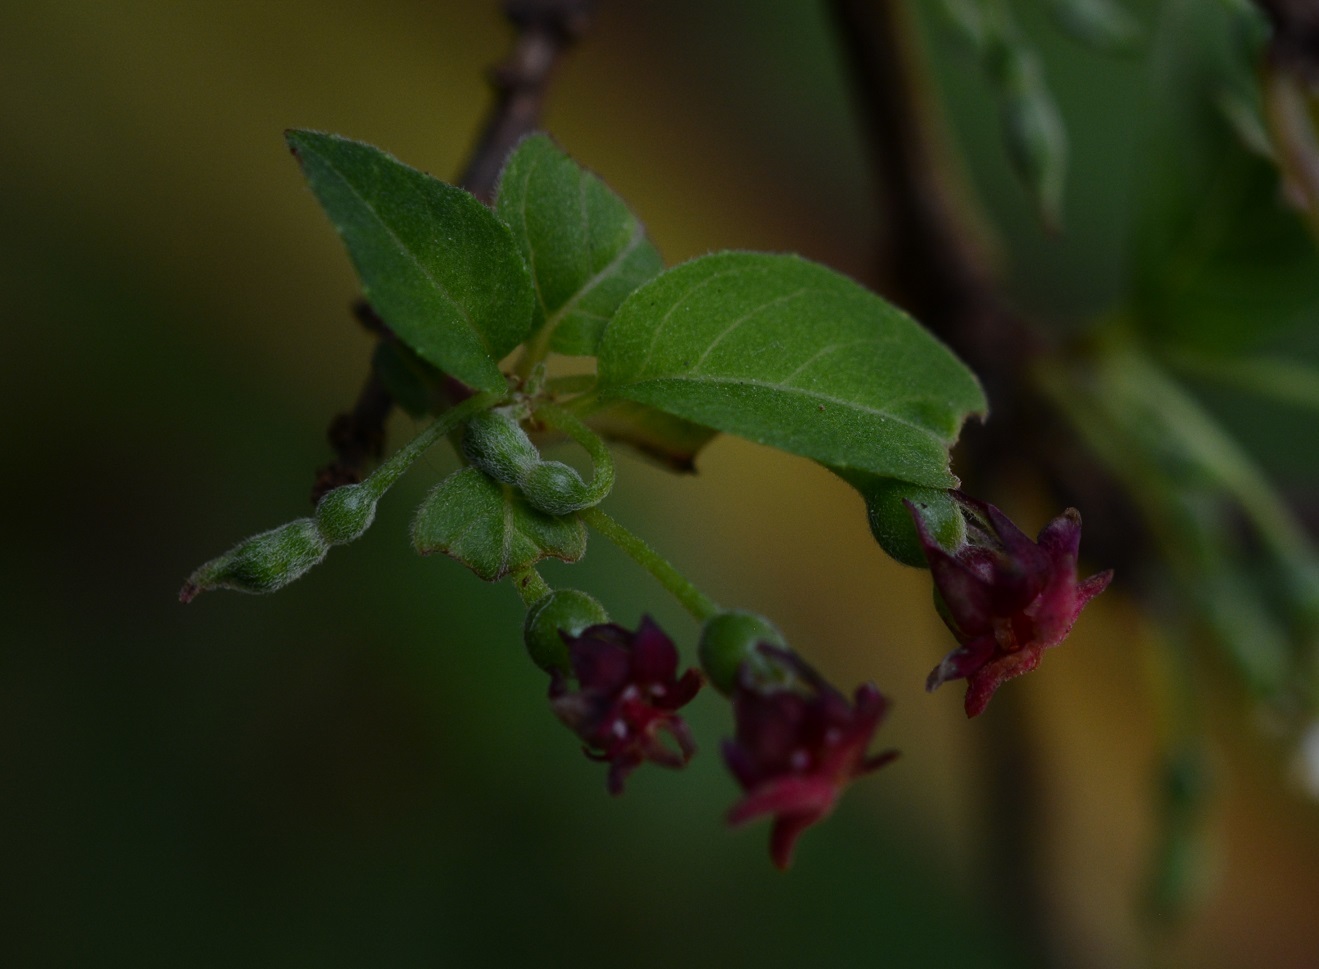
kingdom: Plantae
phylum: Tracheophyta
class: Magnoliopsida
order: Myrtales
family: Onagraceae
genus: Fuchsia
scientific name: Fuchsia encliandra
